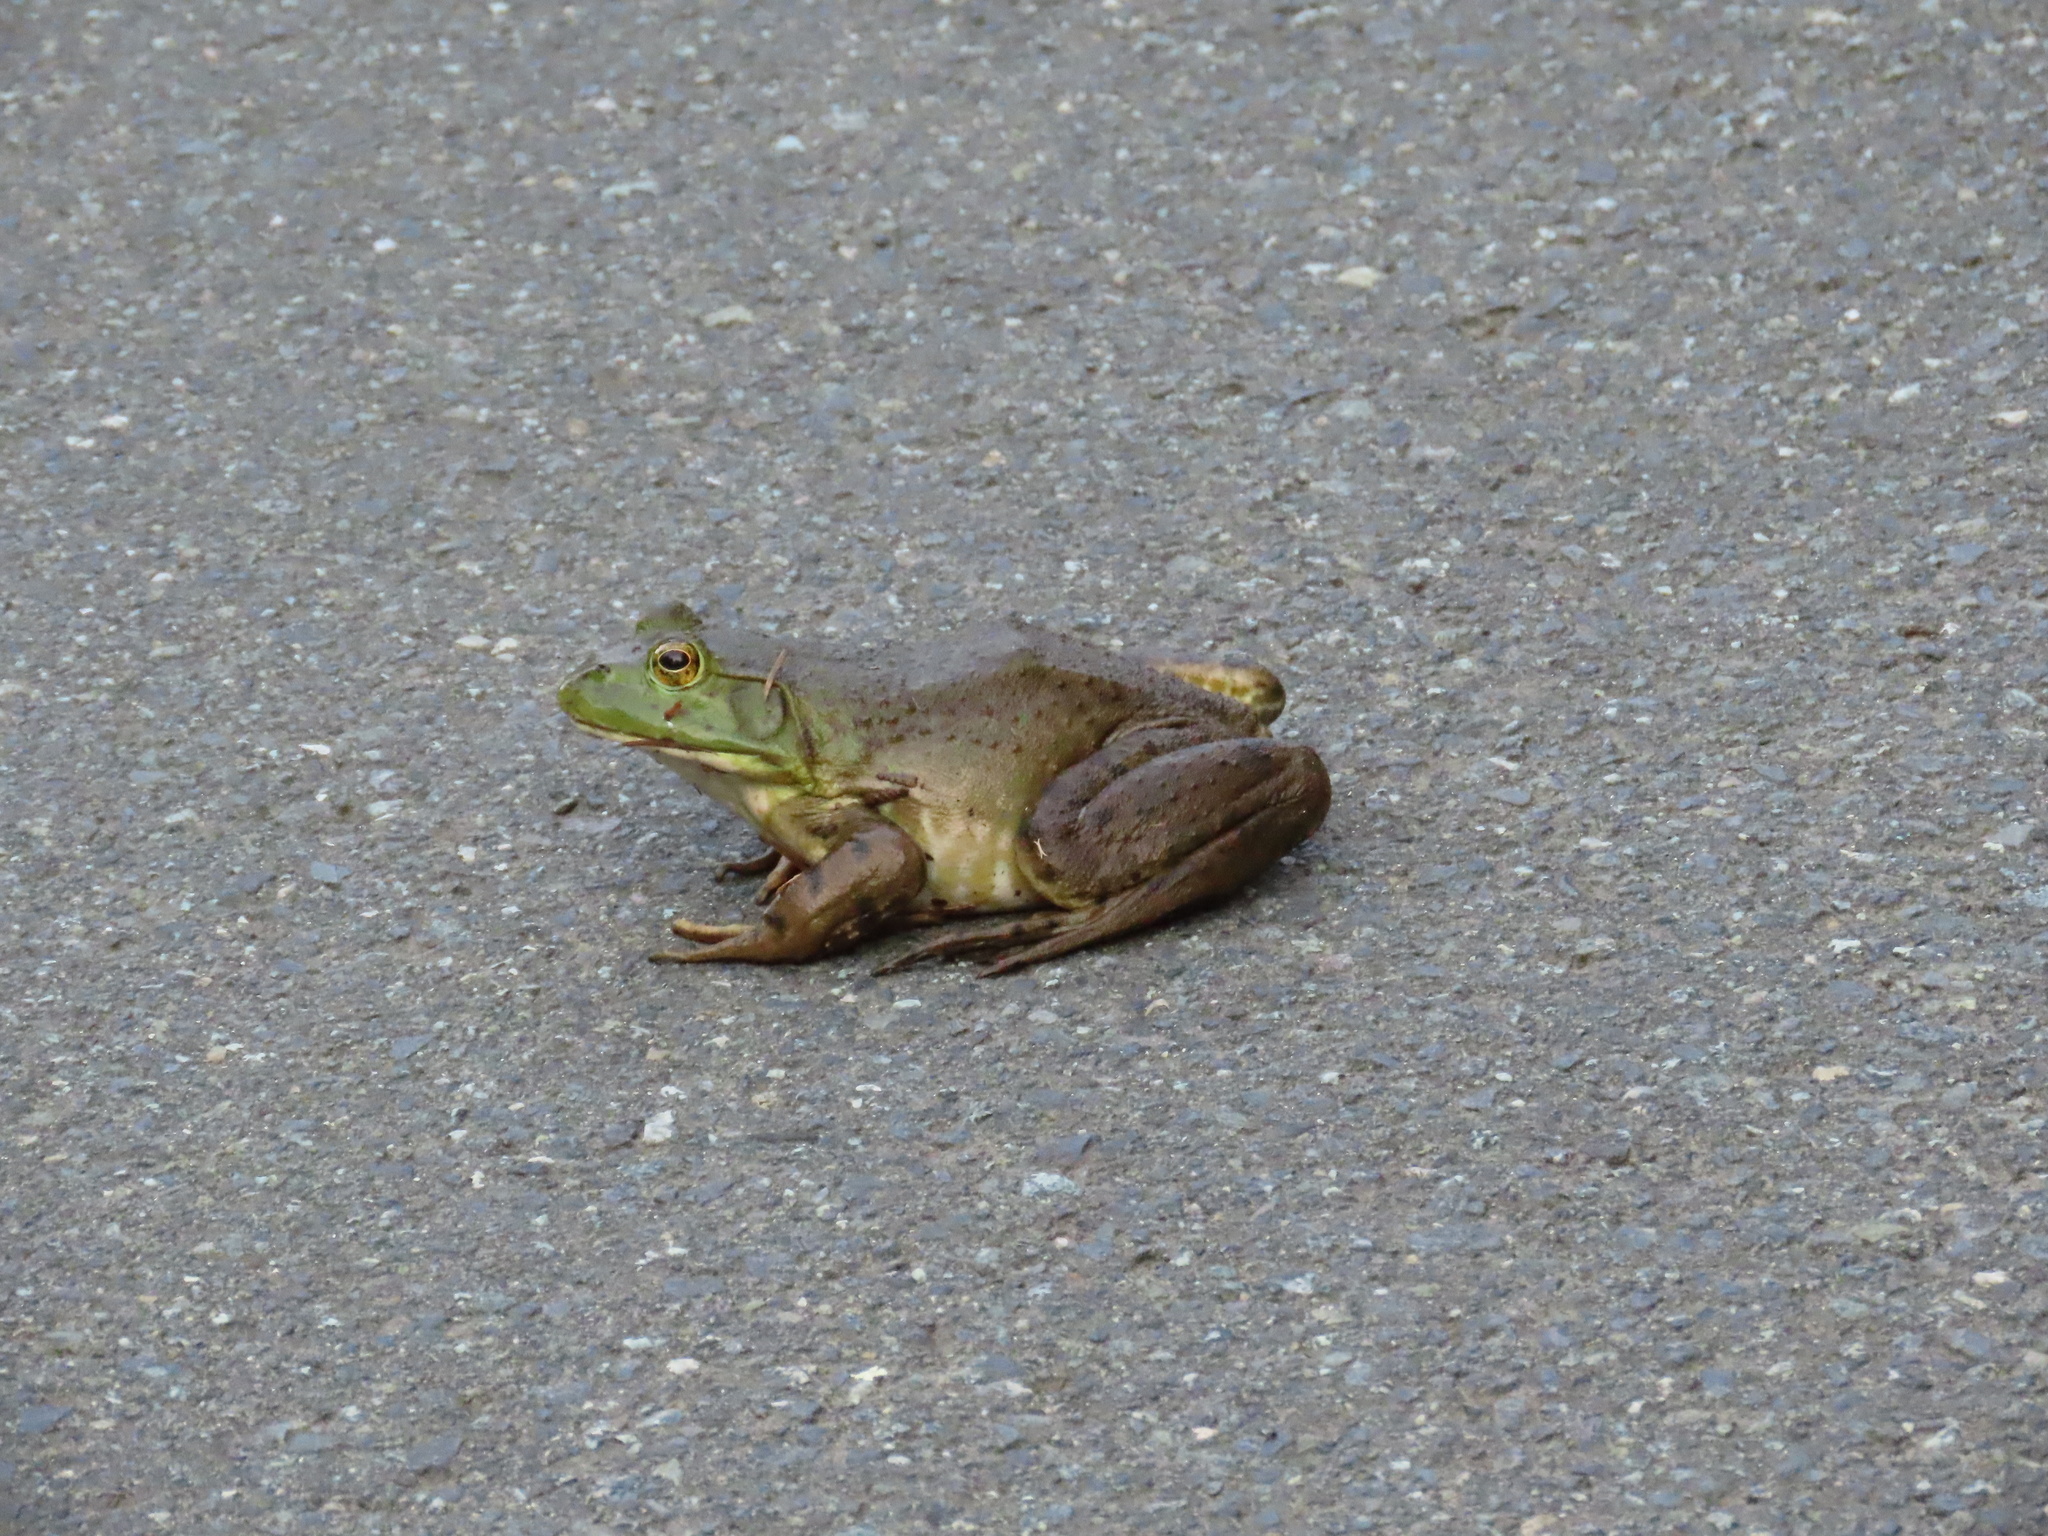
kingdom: Animalia
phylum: Chordata
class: Amphibia
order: Anura
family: Ranidae
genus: Lithobates
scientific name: Lithobates catesbeianus
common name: American bullfrog
